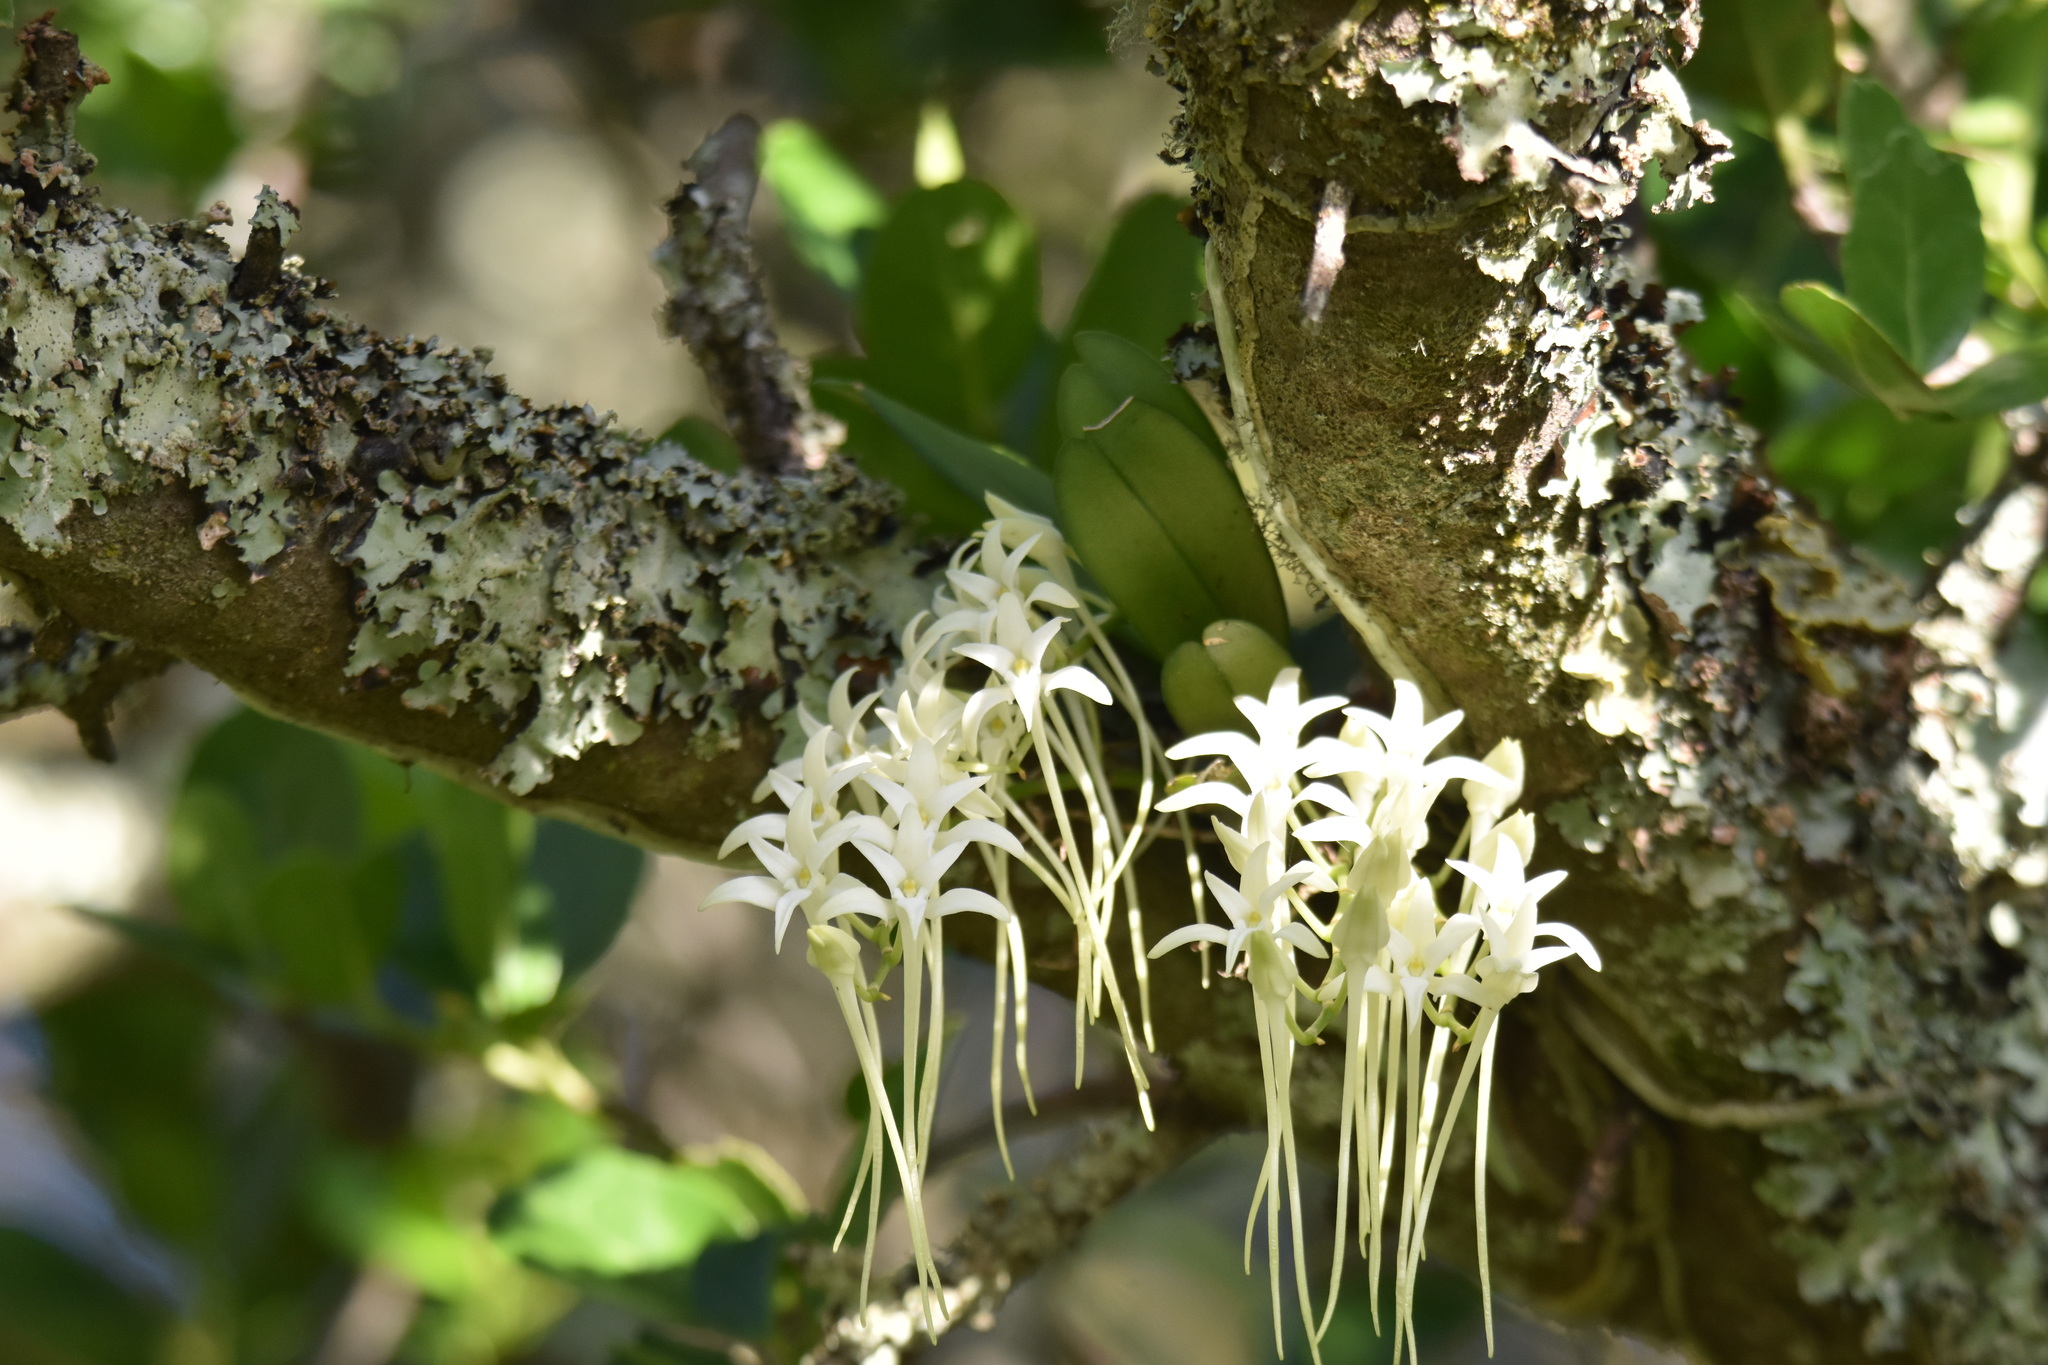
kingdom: Plantae
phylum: Tracheophyta
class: Liliopsida
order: Asparagales
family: Orchidaceae
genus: Mystacidium
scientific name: Mystacidium capense
